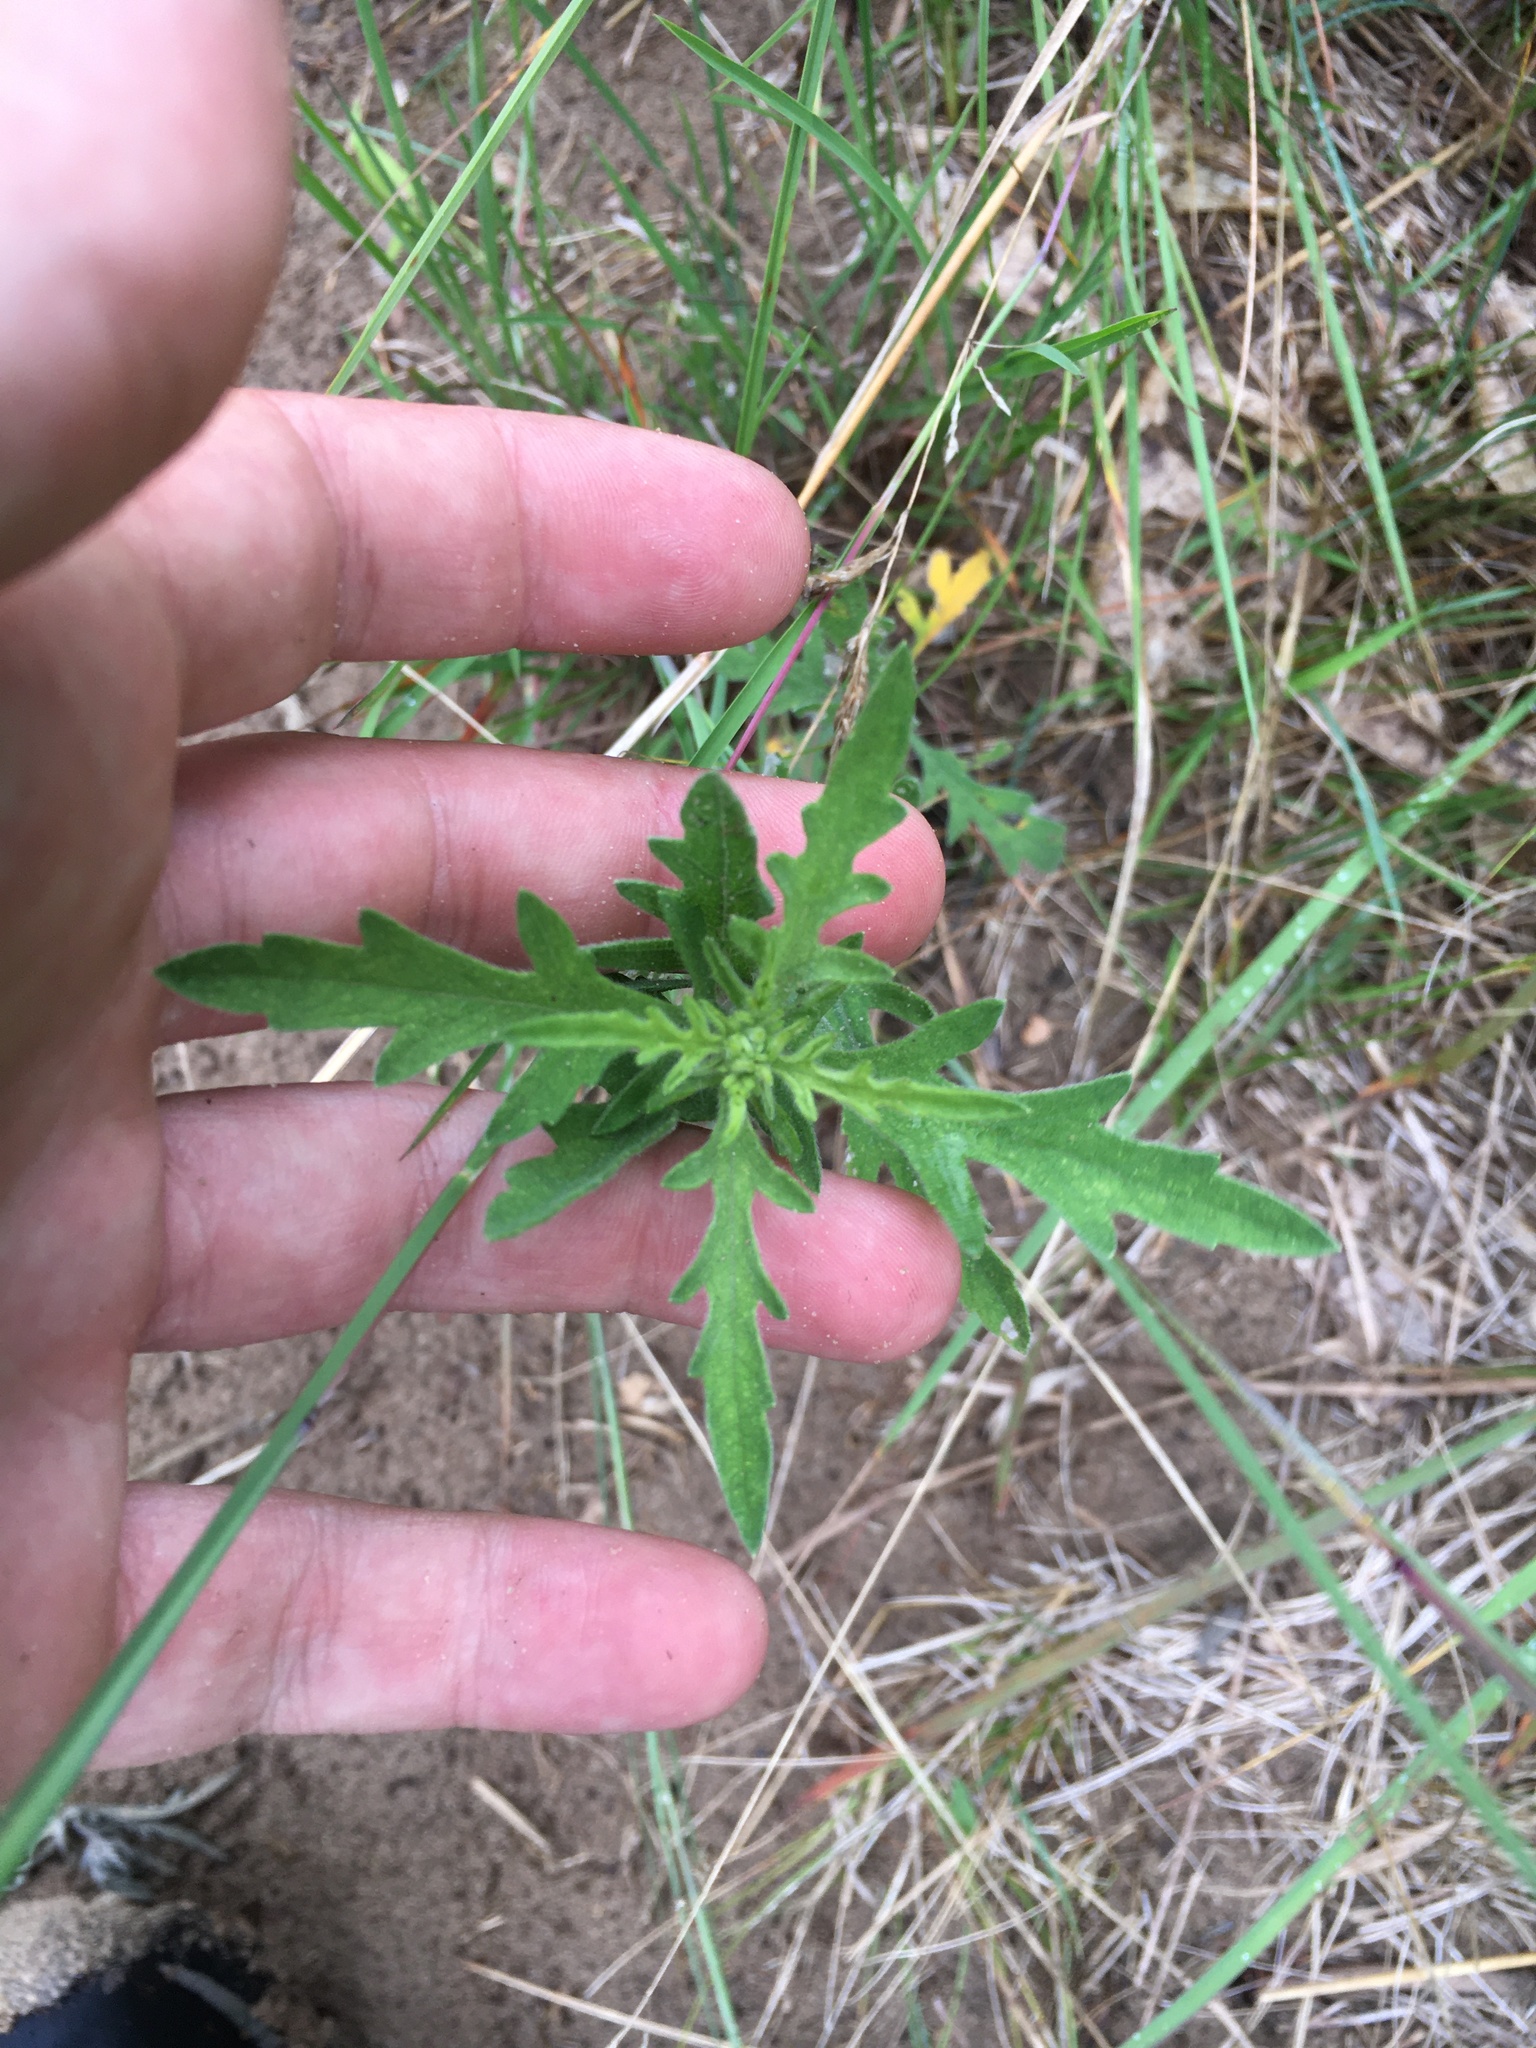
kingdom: Plantae
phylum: Tracheophyta
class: Magnoliopsida
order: Asterales
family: Asteraceae
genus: Ambrosia
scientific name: Ambrosia psilostachya
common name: Perennial ragweed
